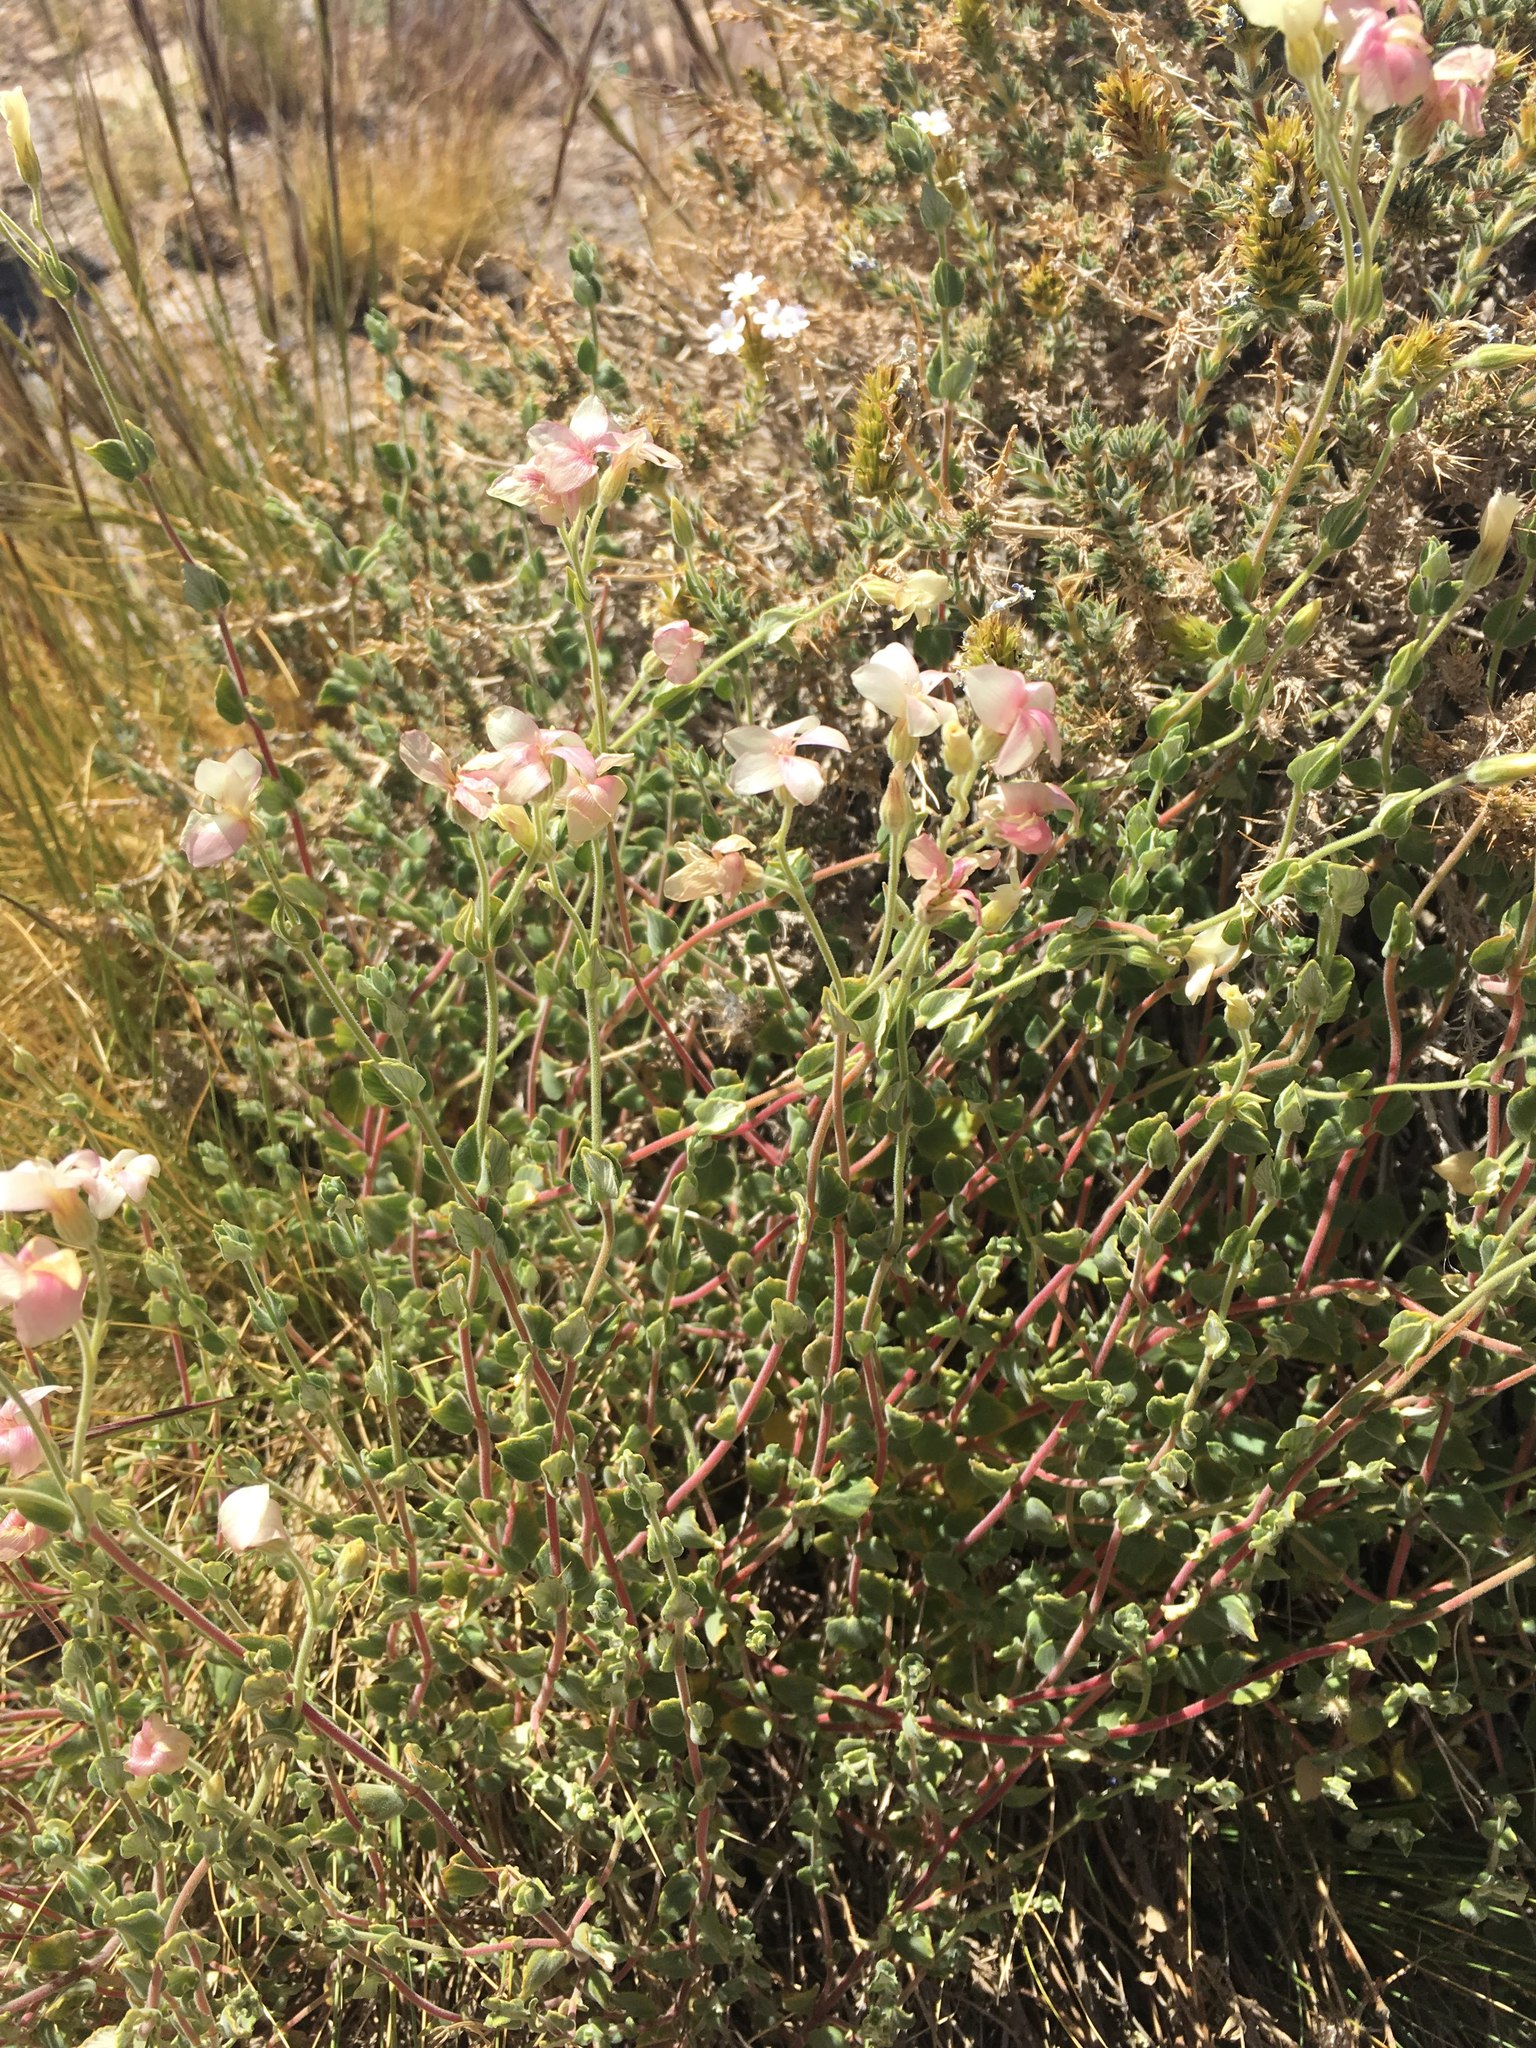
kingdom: Plantae
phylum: Tracheophyta
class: Magnoliopsida
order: Geraniales
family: Vivianiaceae
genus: Viviania
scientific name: Viviania marifolia
